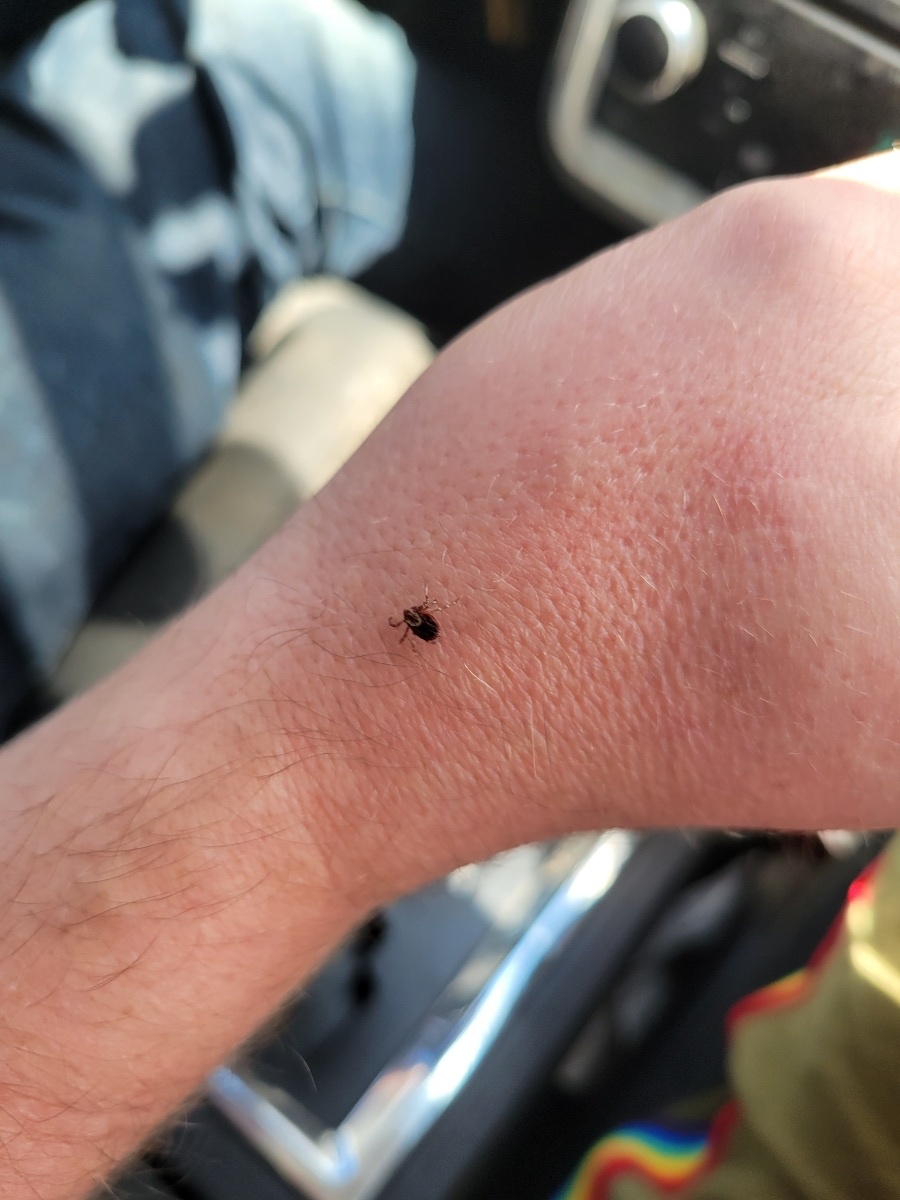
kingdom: Animalia
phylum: Arthropoda
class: Arachnida
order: Ixodida
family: Ixodidae
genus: Dermacentor
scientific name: Dermacentor variabilis
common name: American dog tick
